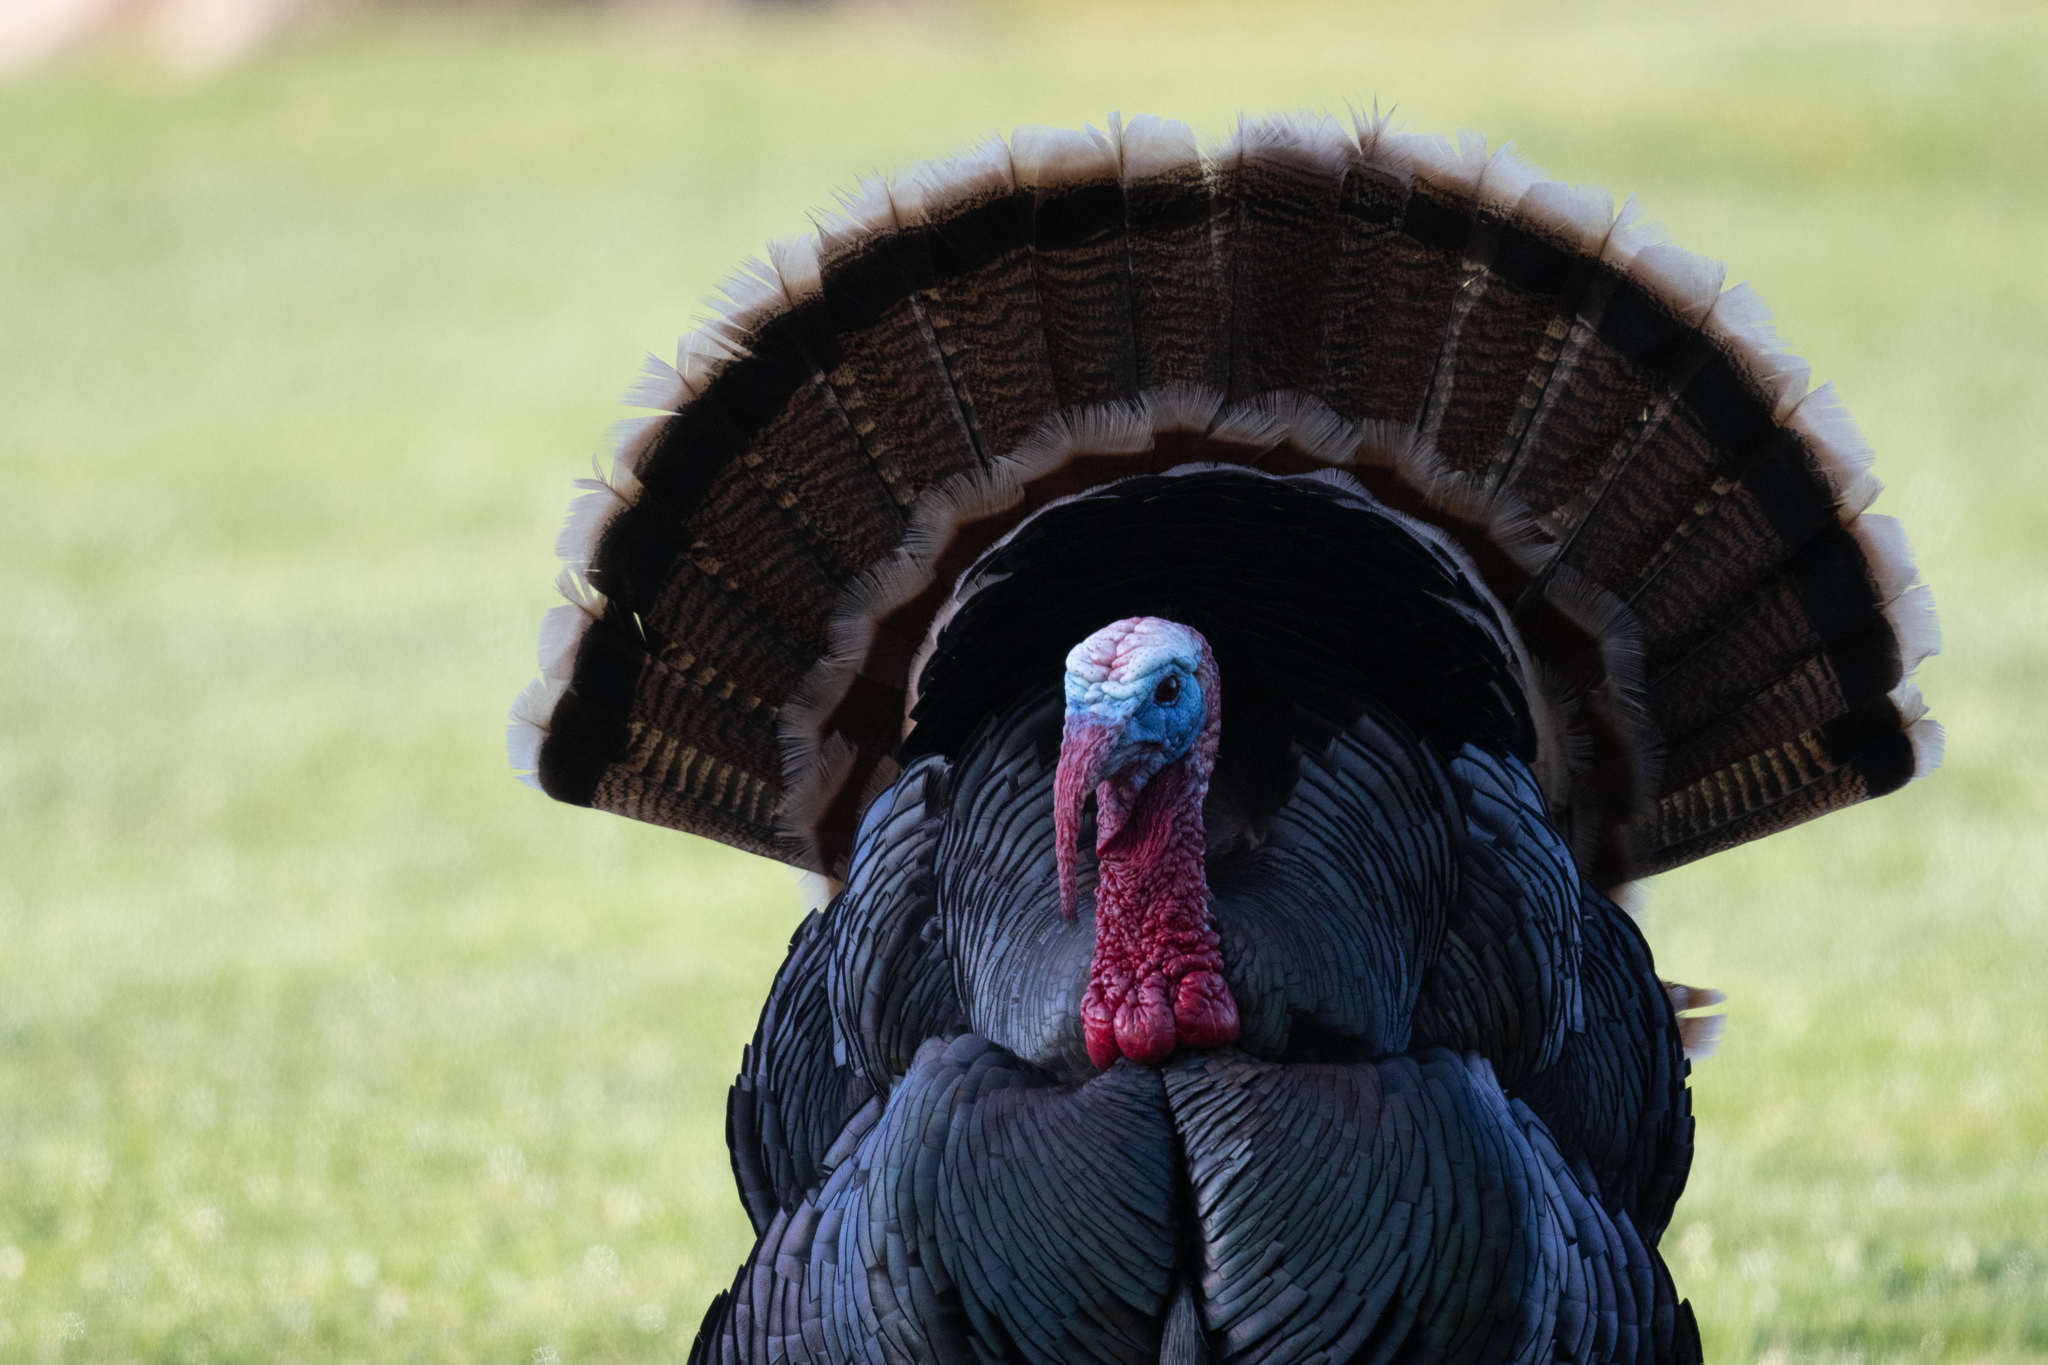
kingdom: Animalia
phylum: Chordata
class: Aves
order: Galliformes
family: Phasianidae
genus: Meleagris
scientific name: Meleagris gallopavo
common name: Wild turkey
